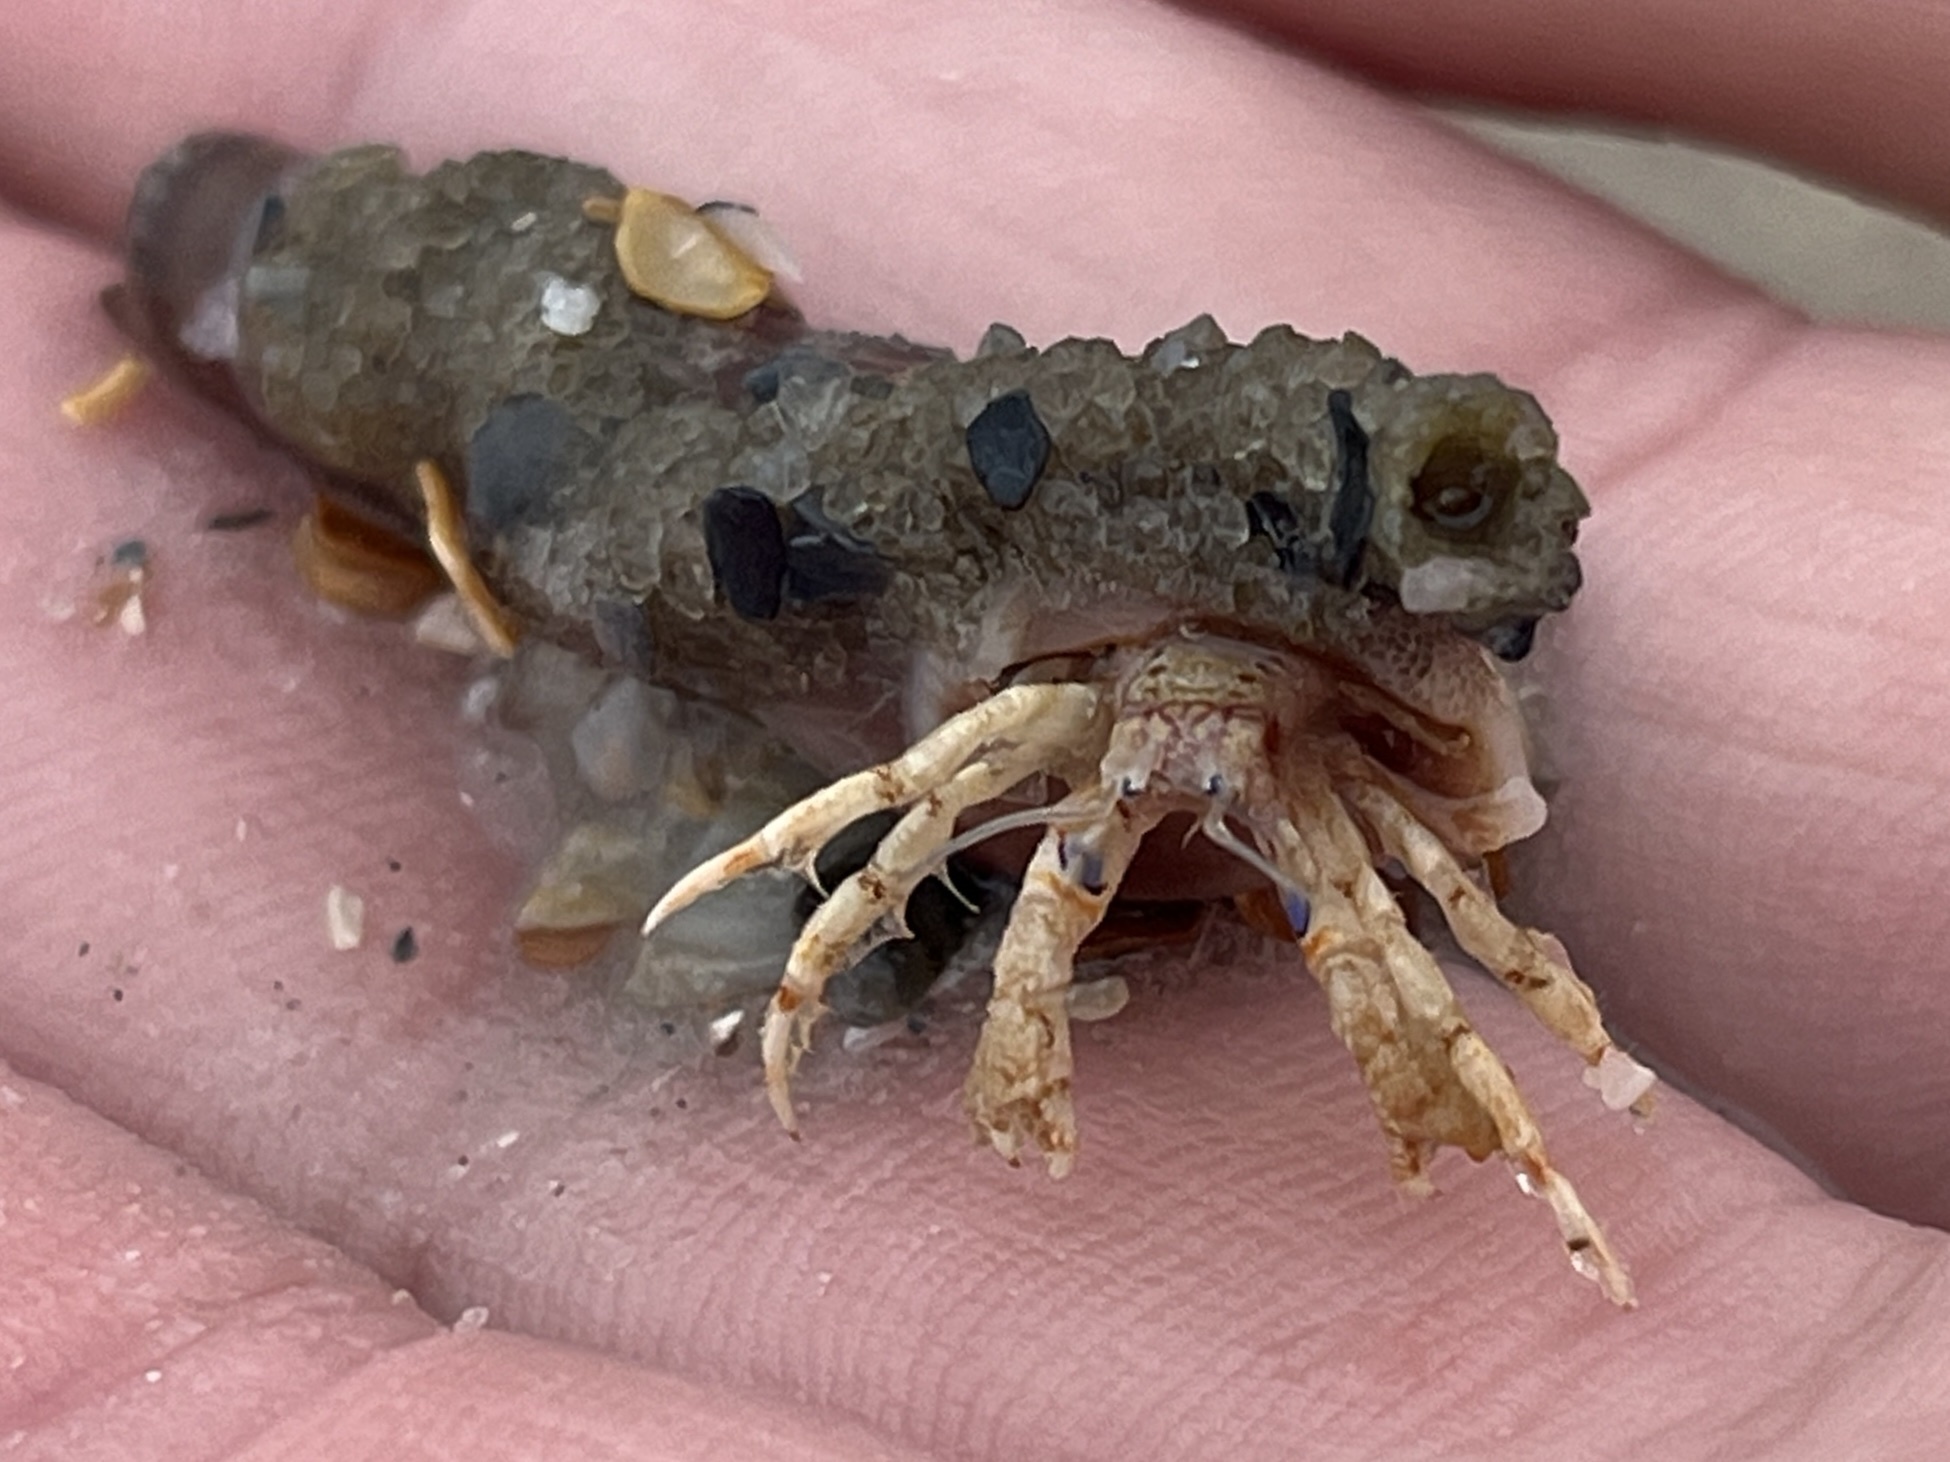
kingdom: Animalia
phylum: Arthropoda
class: Malacostraca
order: Decapoda
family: Diogenidae
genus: Areopaguristes
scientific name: Areopaguristes hummi
